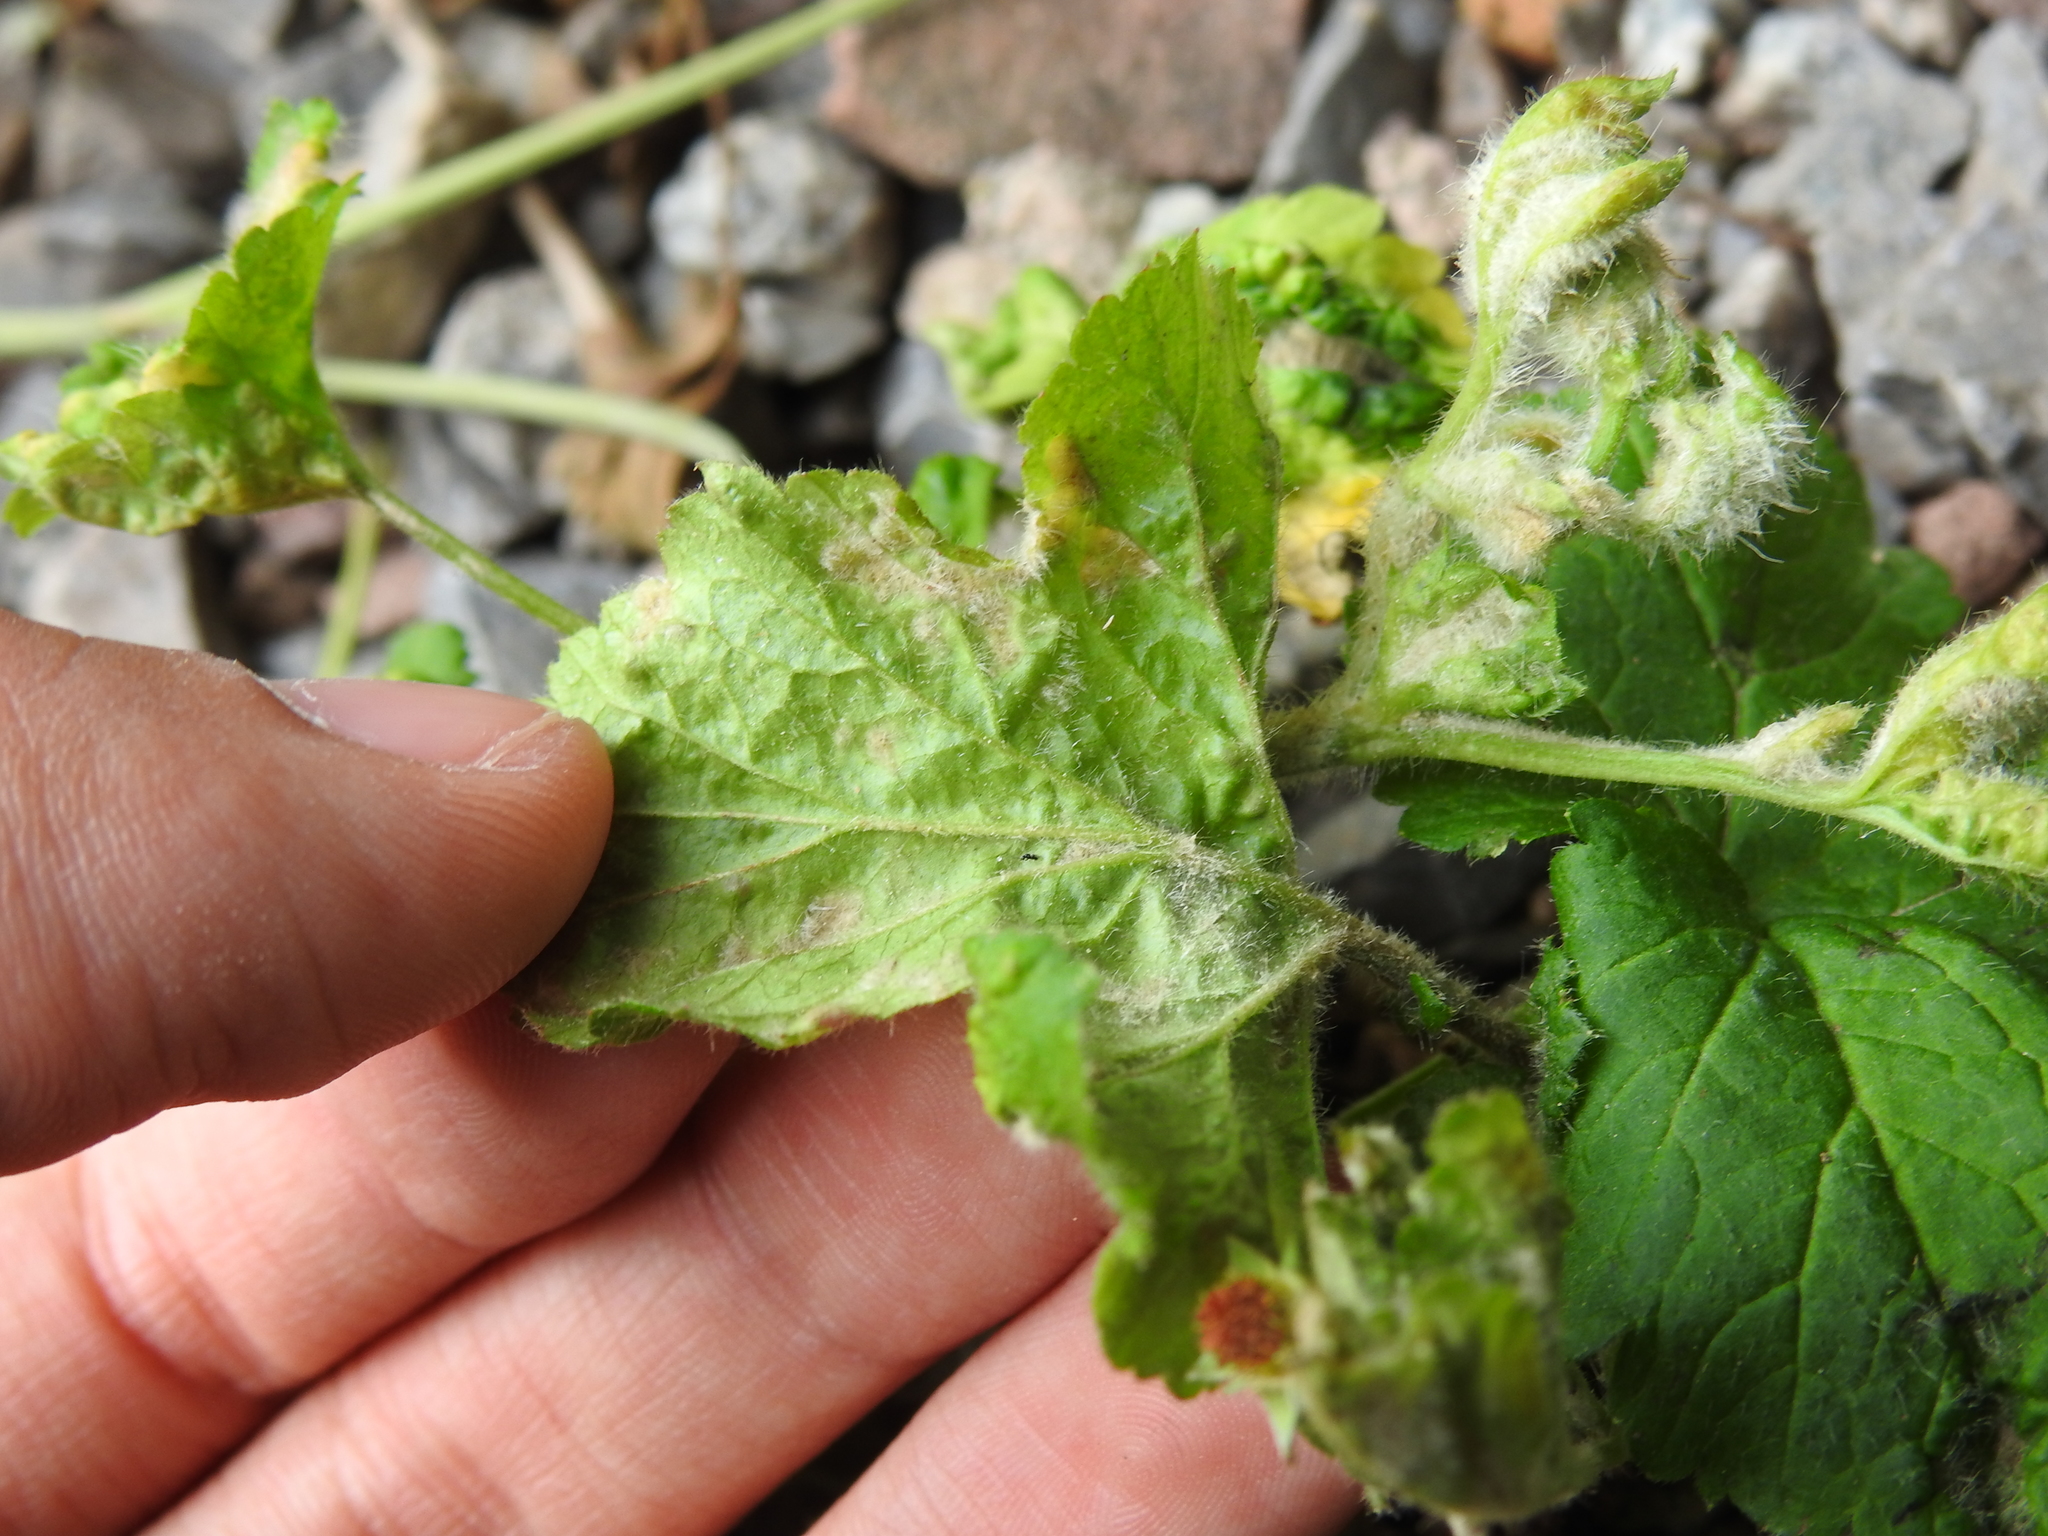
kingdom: Animalia
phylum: Arthropoda
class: Arachnida
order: Trombidiformes
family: Eriophyidae
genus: Cecidophyes
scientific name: Cecidophyes nudus
